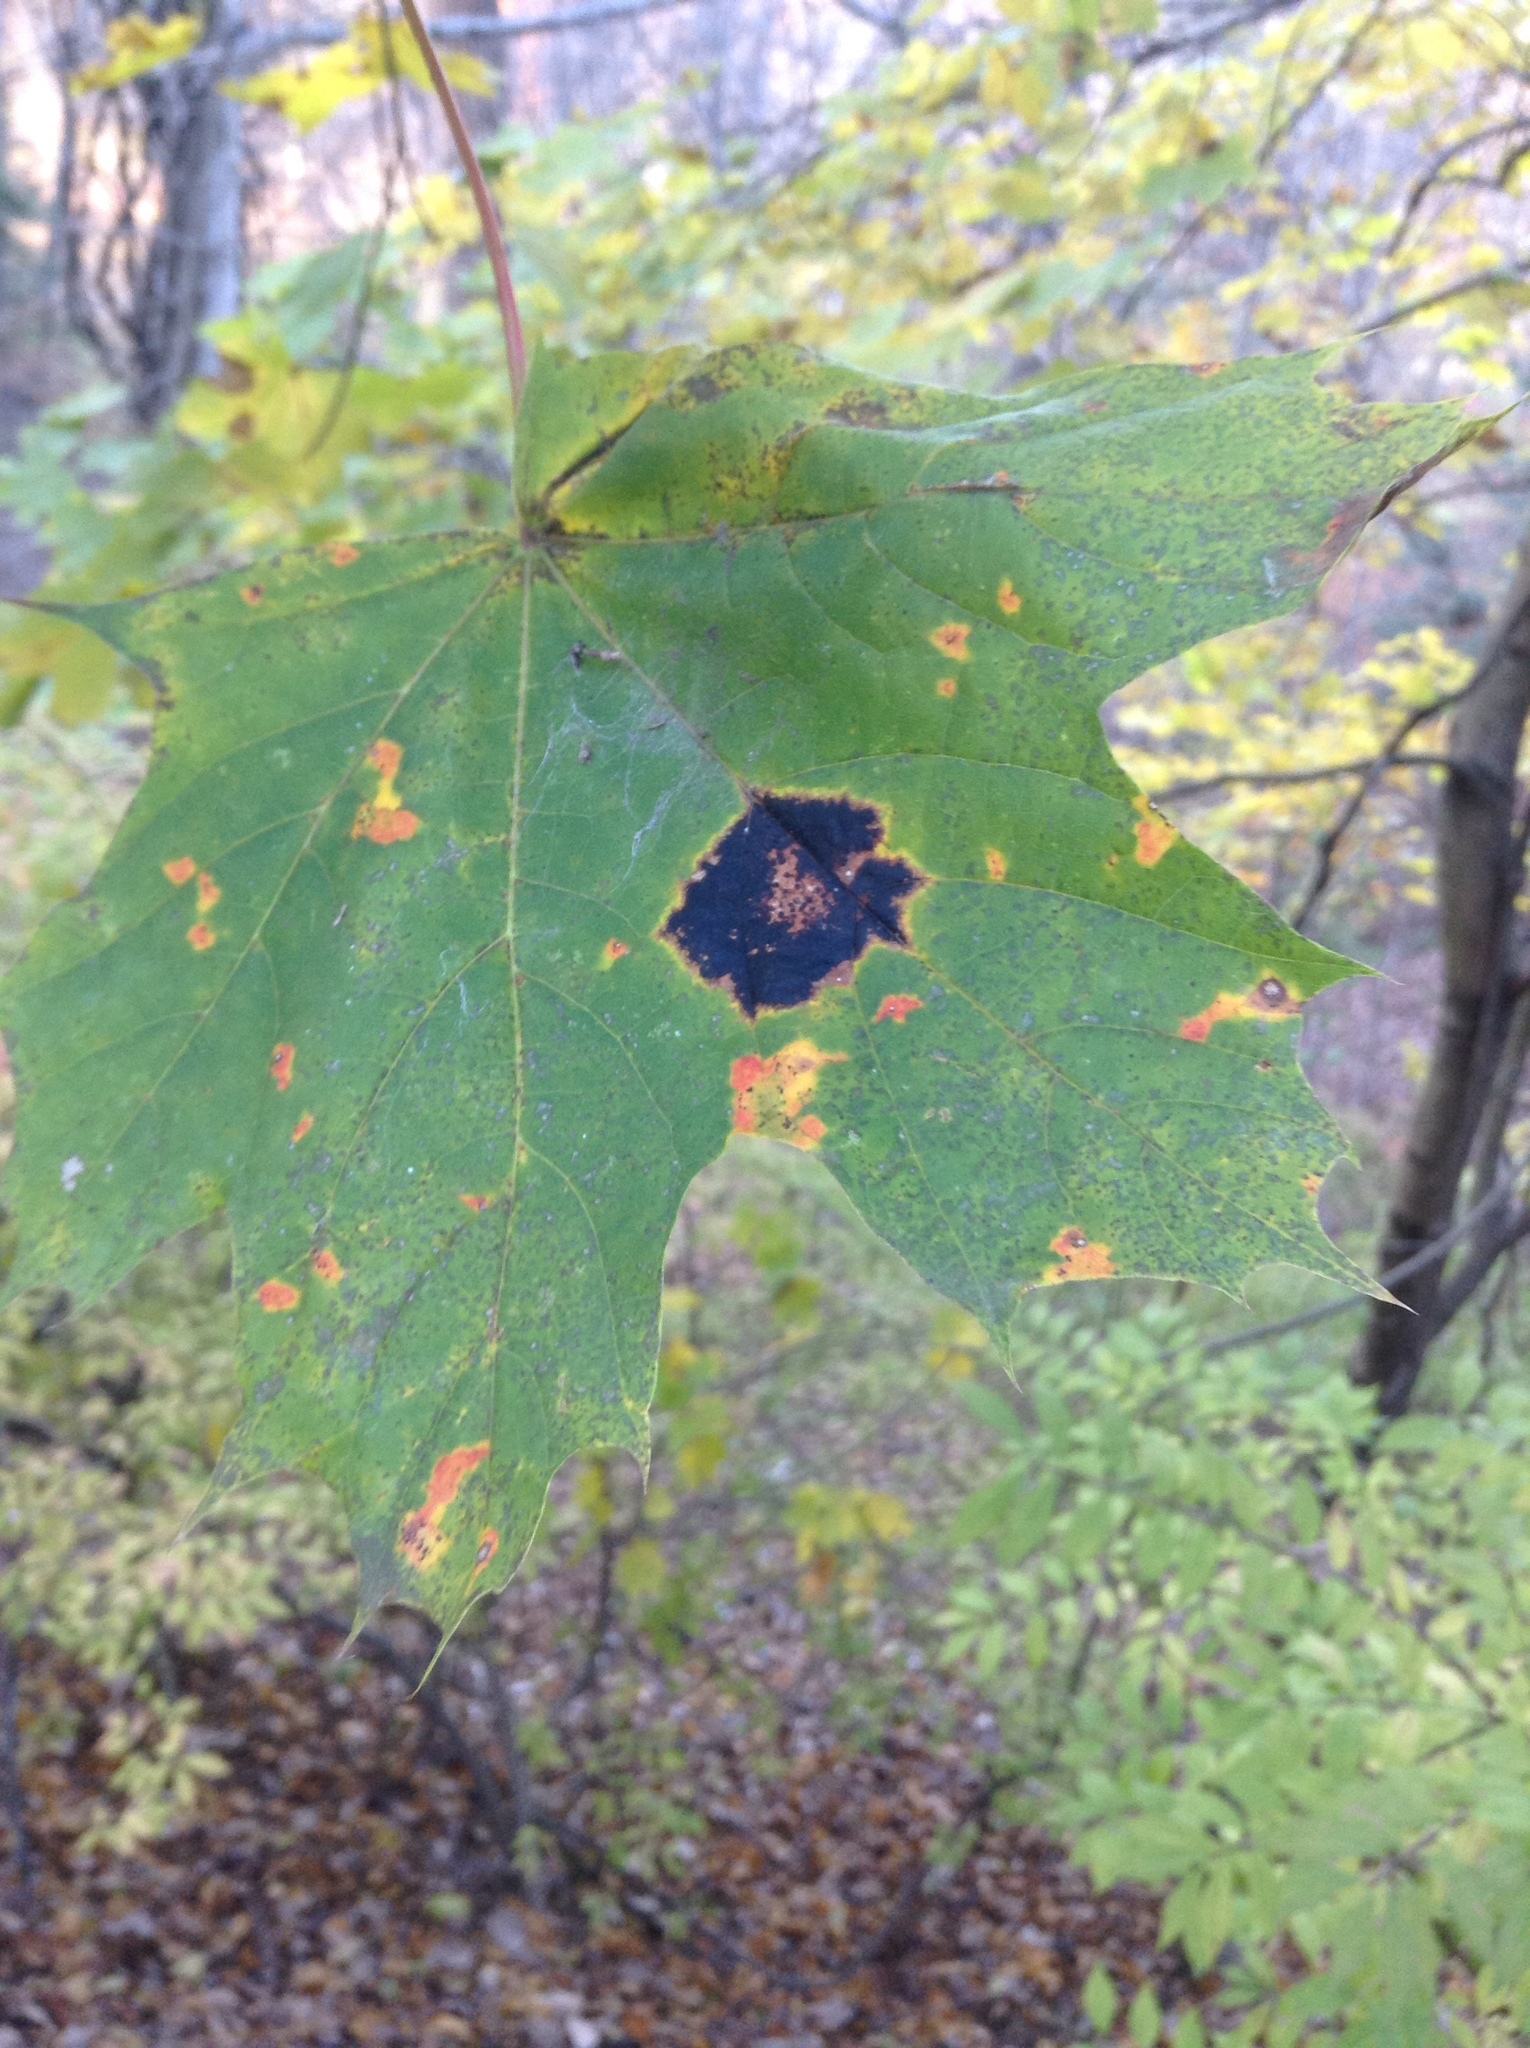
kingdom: Plantae
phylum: Tracheophyta
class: Magnoliopsida
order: Sapindales
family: Sapindaceae
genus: Acer
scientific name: Acer platanoides
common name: Norway maple
